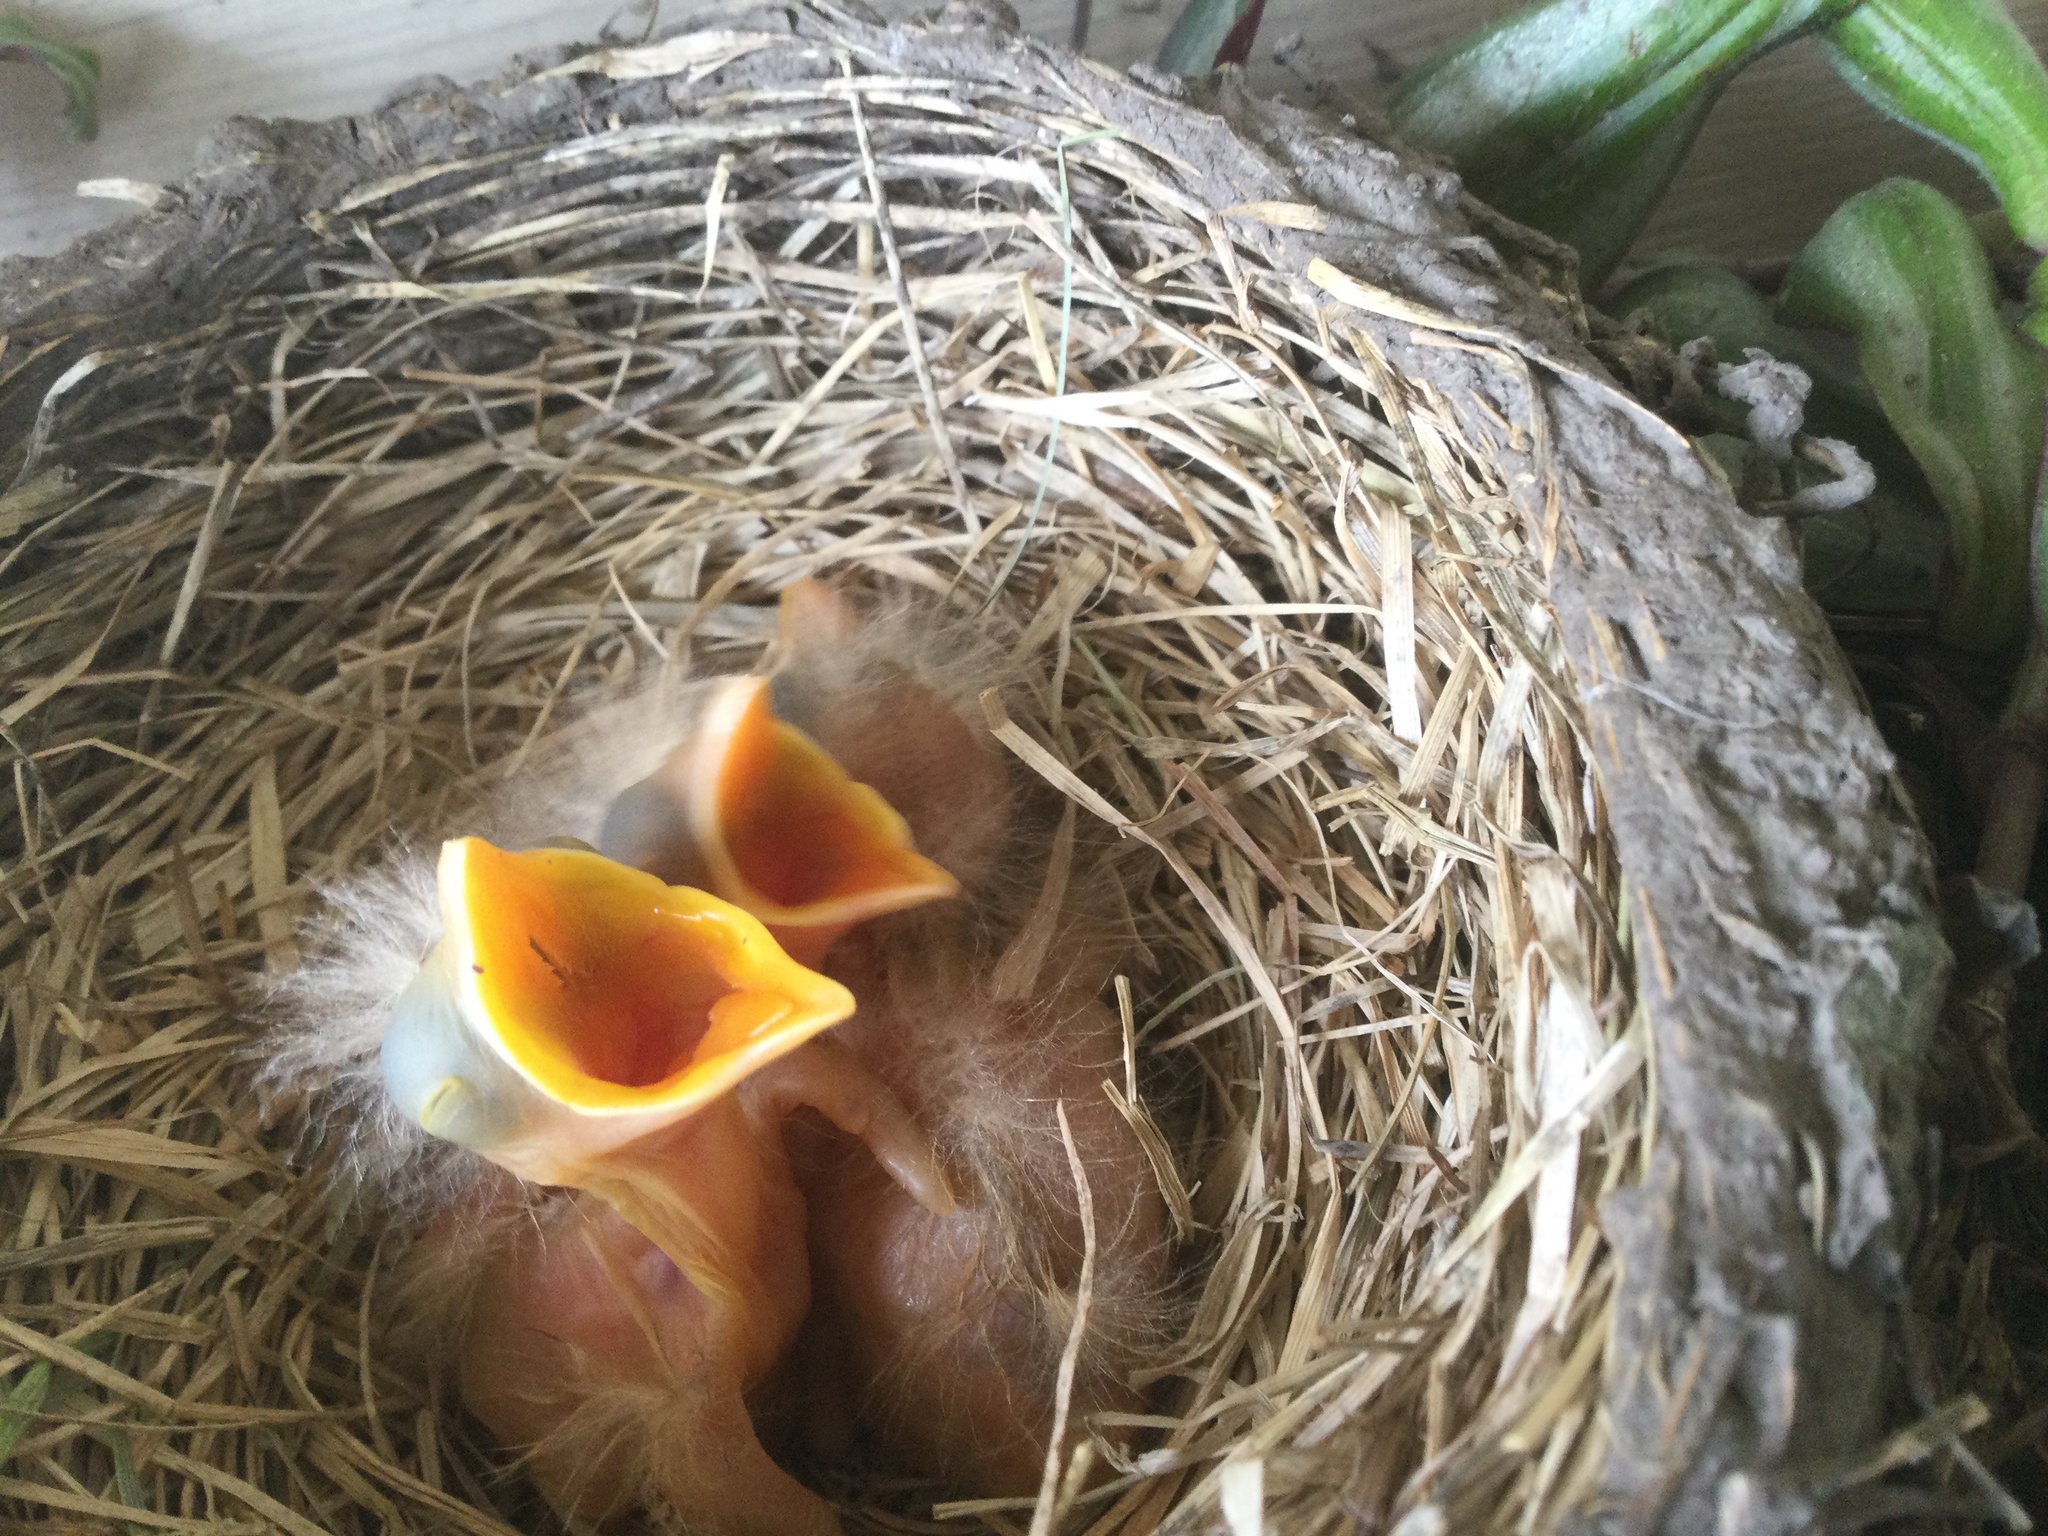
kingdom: Animalia
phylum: Chordata
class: Aves
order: Passeriformes
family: Turdidae
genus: Turdus
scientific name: Turdus migratorius
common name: American robin
